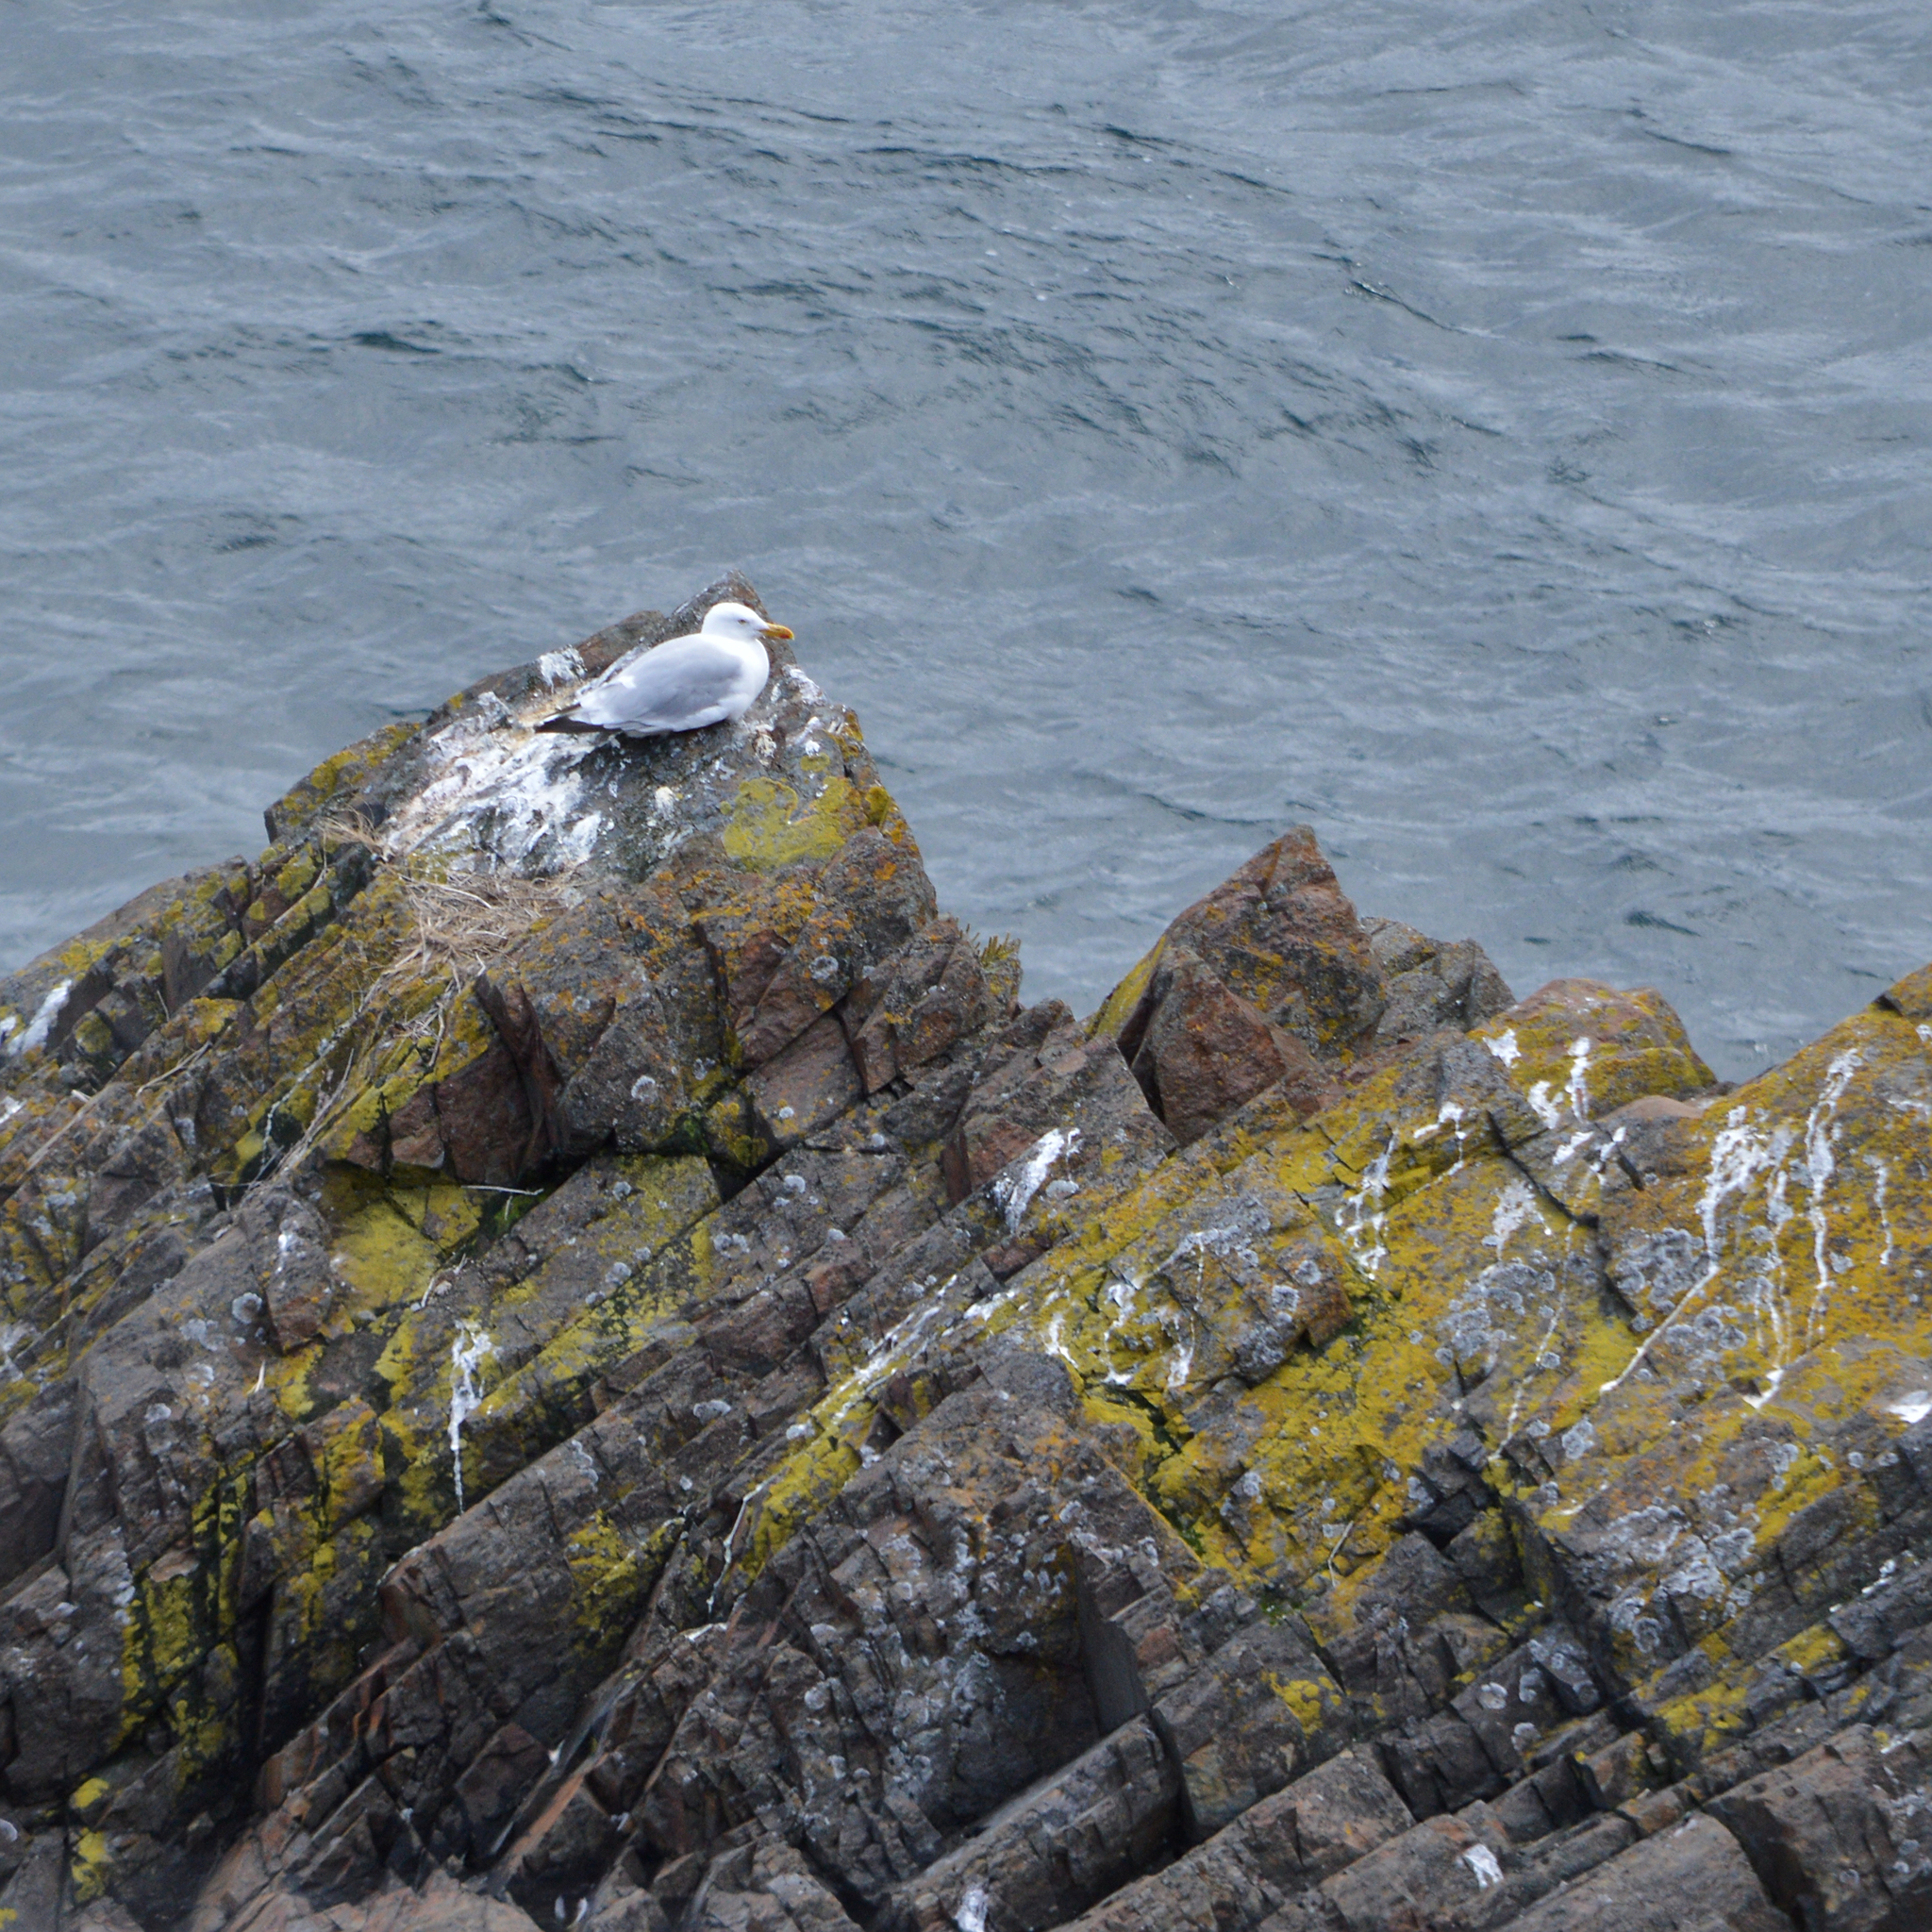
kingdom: Animalia
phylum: Chordata
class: Aves
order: Charadriiformes
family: Laridae
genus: Larus
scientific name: Larus argentatus
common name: Herring gull
